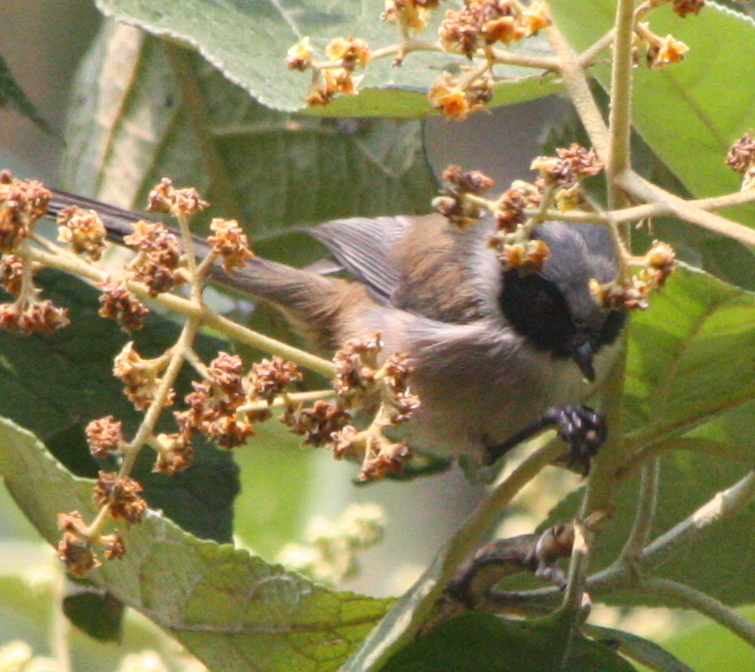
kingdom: Animalia
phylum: Chordata
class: Aves
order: Passeriformes
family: Aegithalidae
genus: Psaltriparus
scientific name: Psaltriparus minimus
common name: American bushtit
